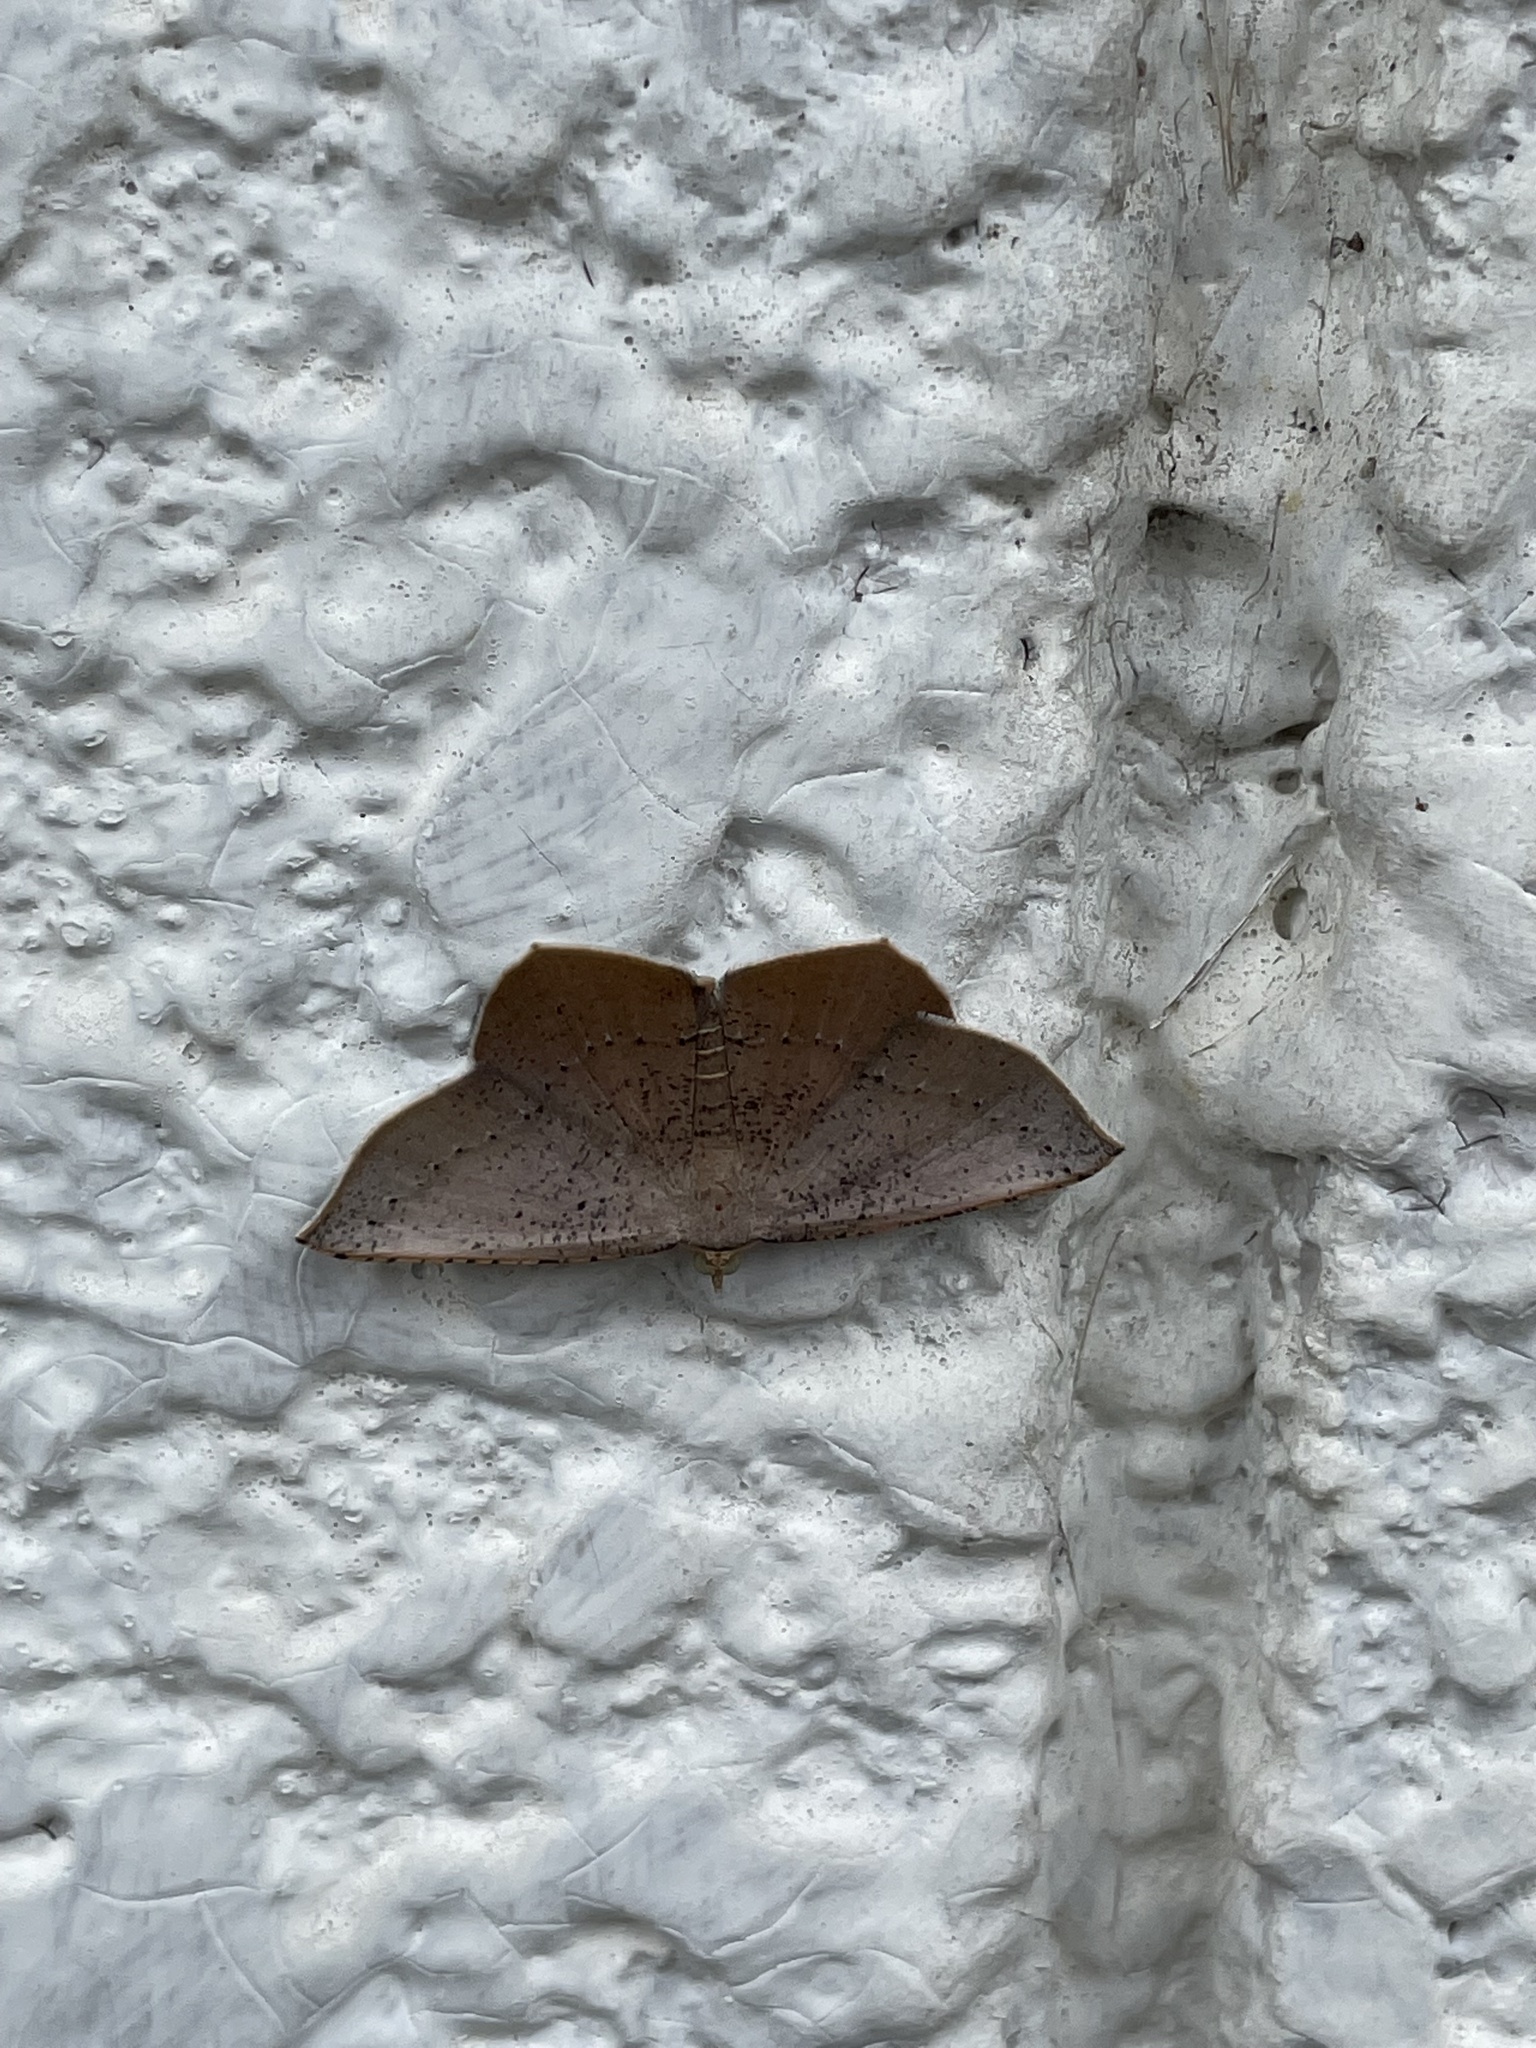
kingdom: Animalia
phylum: Arthropoda
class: Insecta
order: Lepidoptera
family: Geometridae
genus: Plesiomorpha
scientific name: Plesiomorpha punctilinearia
